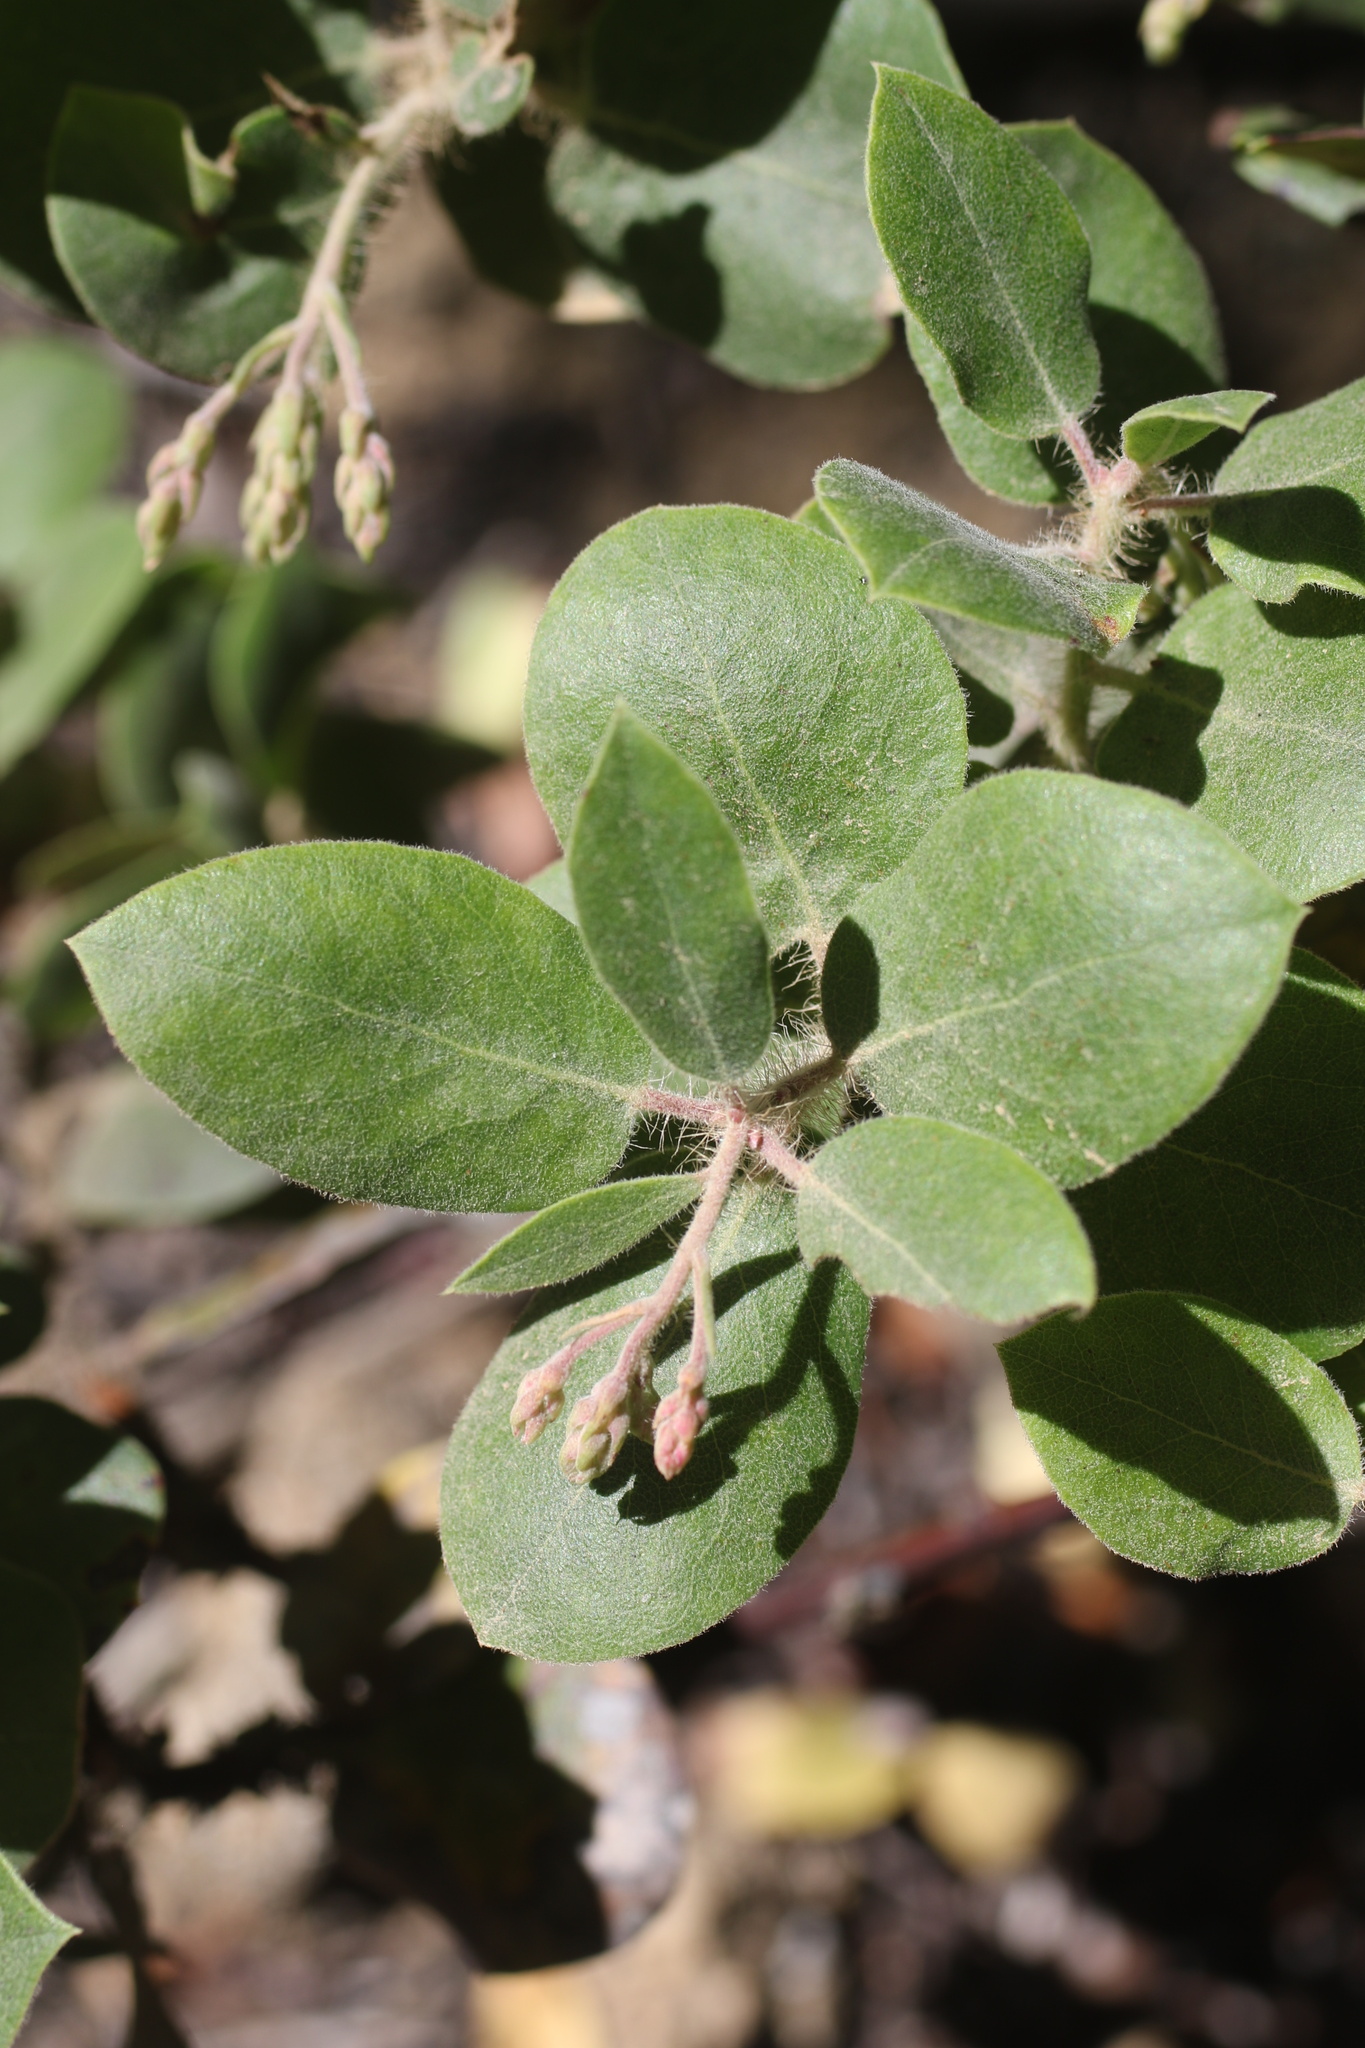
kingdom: Plantae
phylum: Tracheophyta
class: Magnoliopsida
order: Ericales
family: Ericaceae
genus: Arctostaphylos
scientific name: Arctostaphylos crustacea
